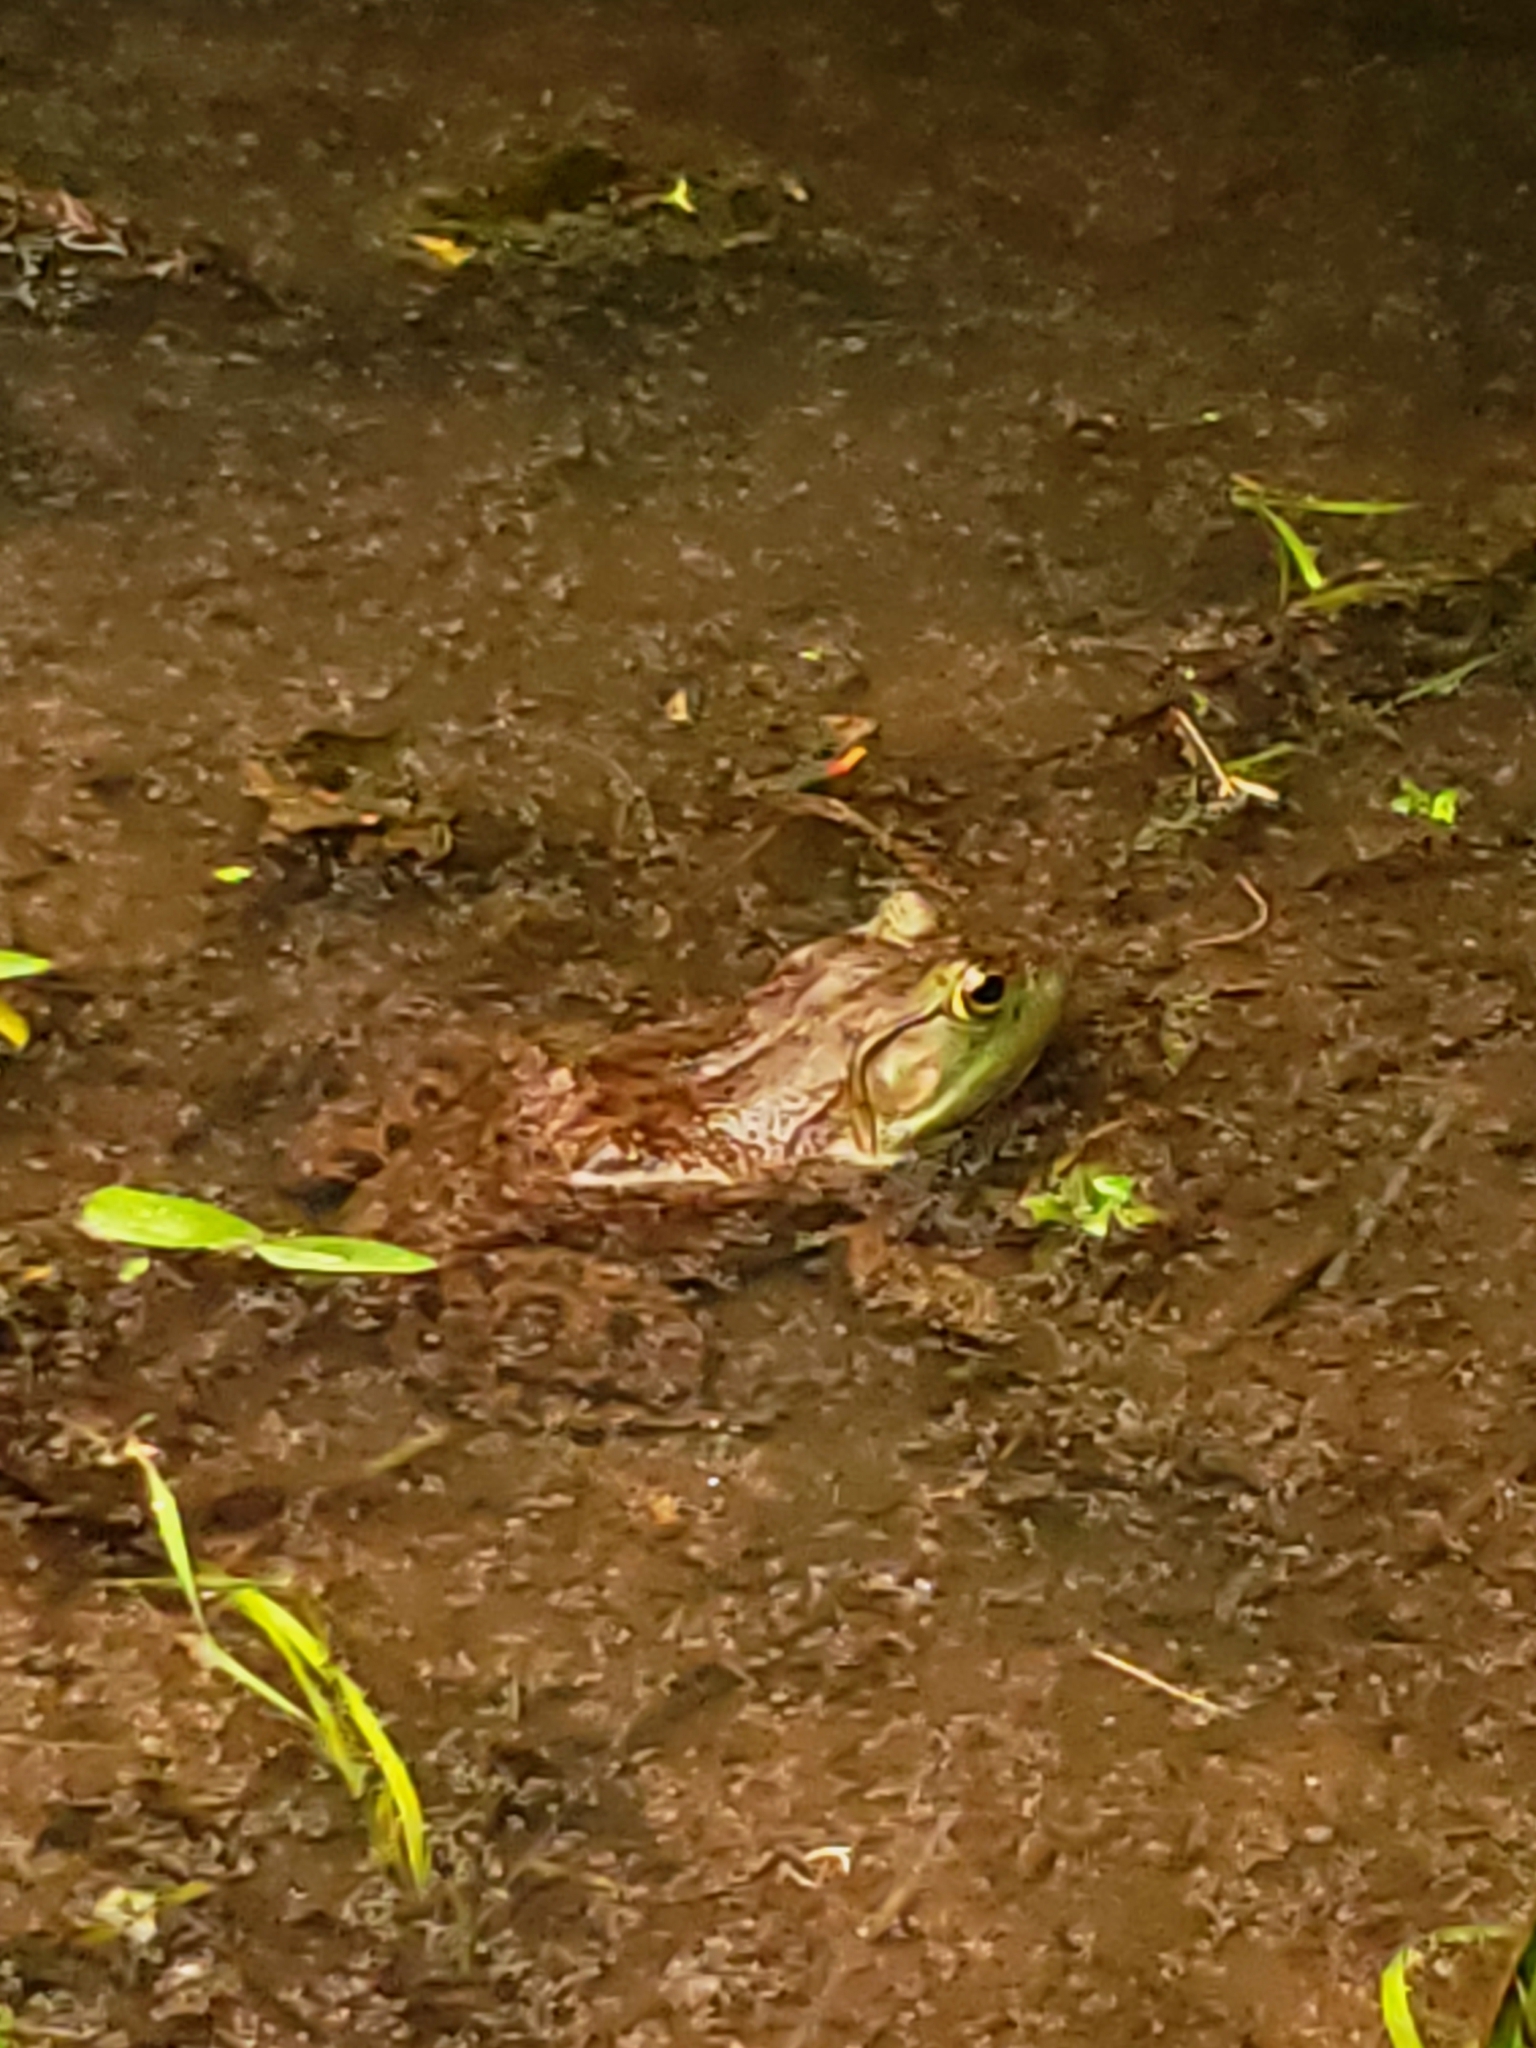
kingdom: Animalia
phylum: Chordata
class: Amphibia
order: Anura
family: Ranidae
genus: Lithobates
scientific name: Lithobates catesbeianus
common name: American bullfrog
